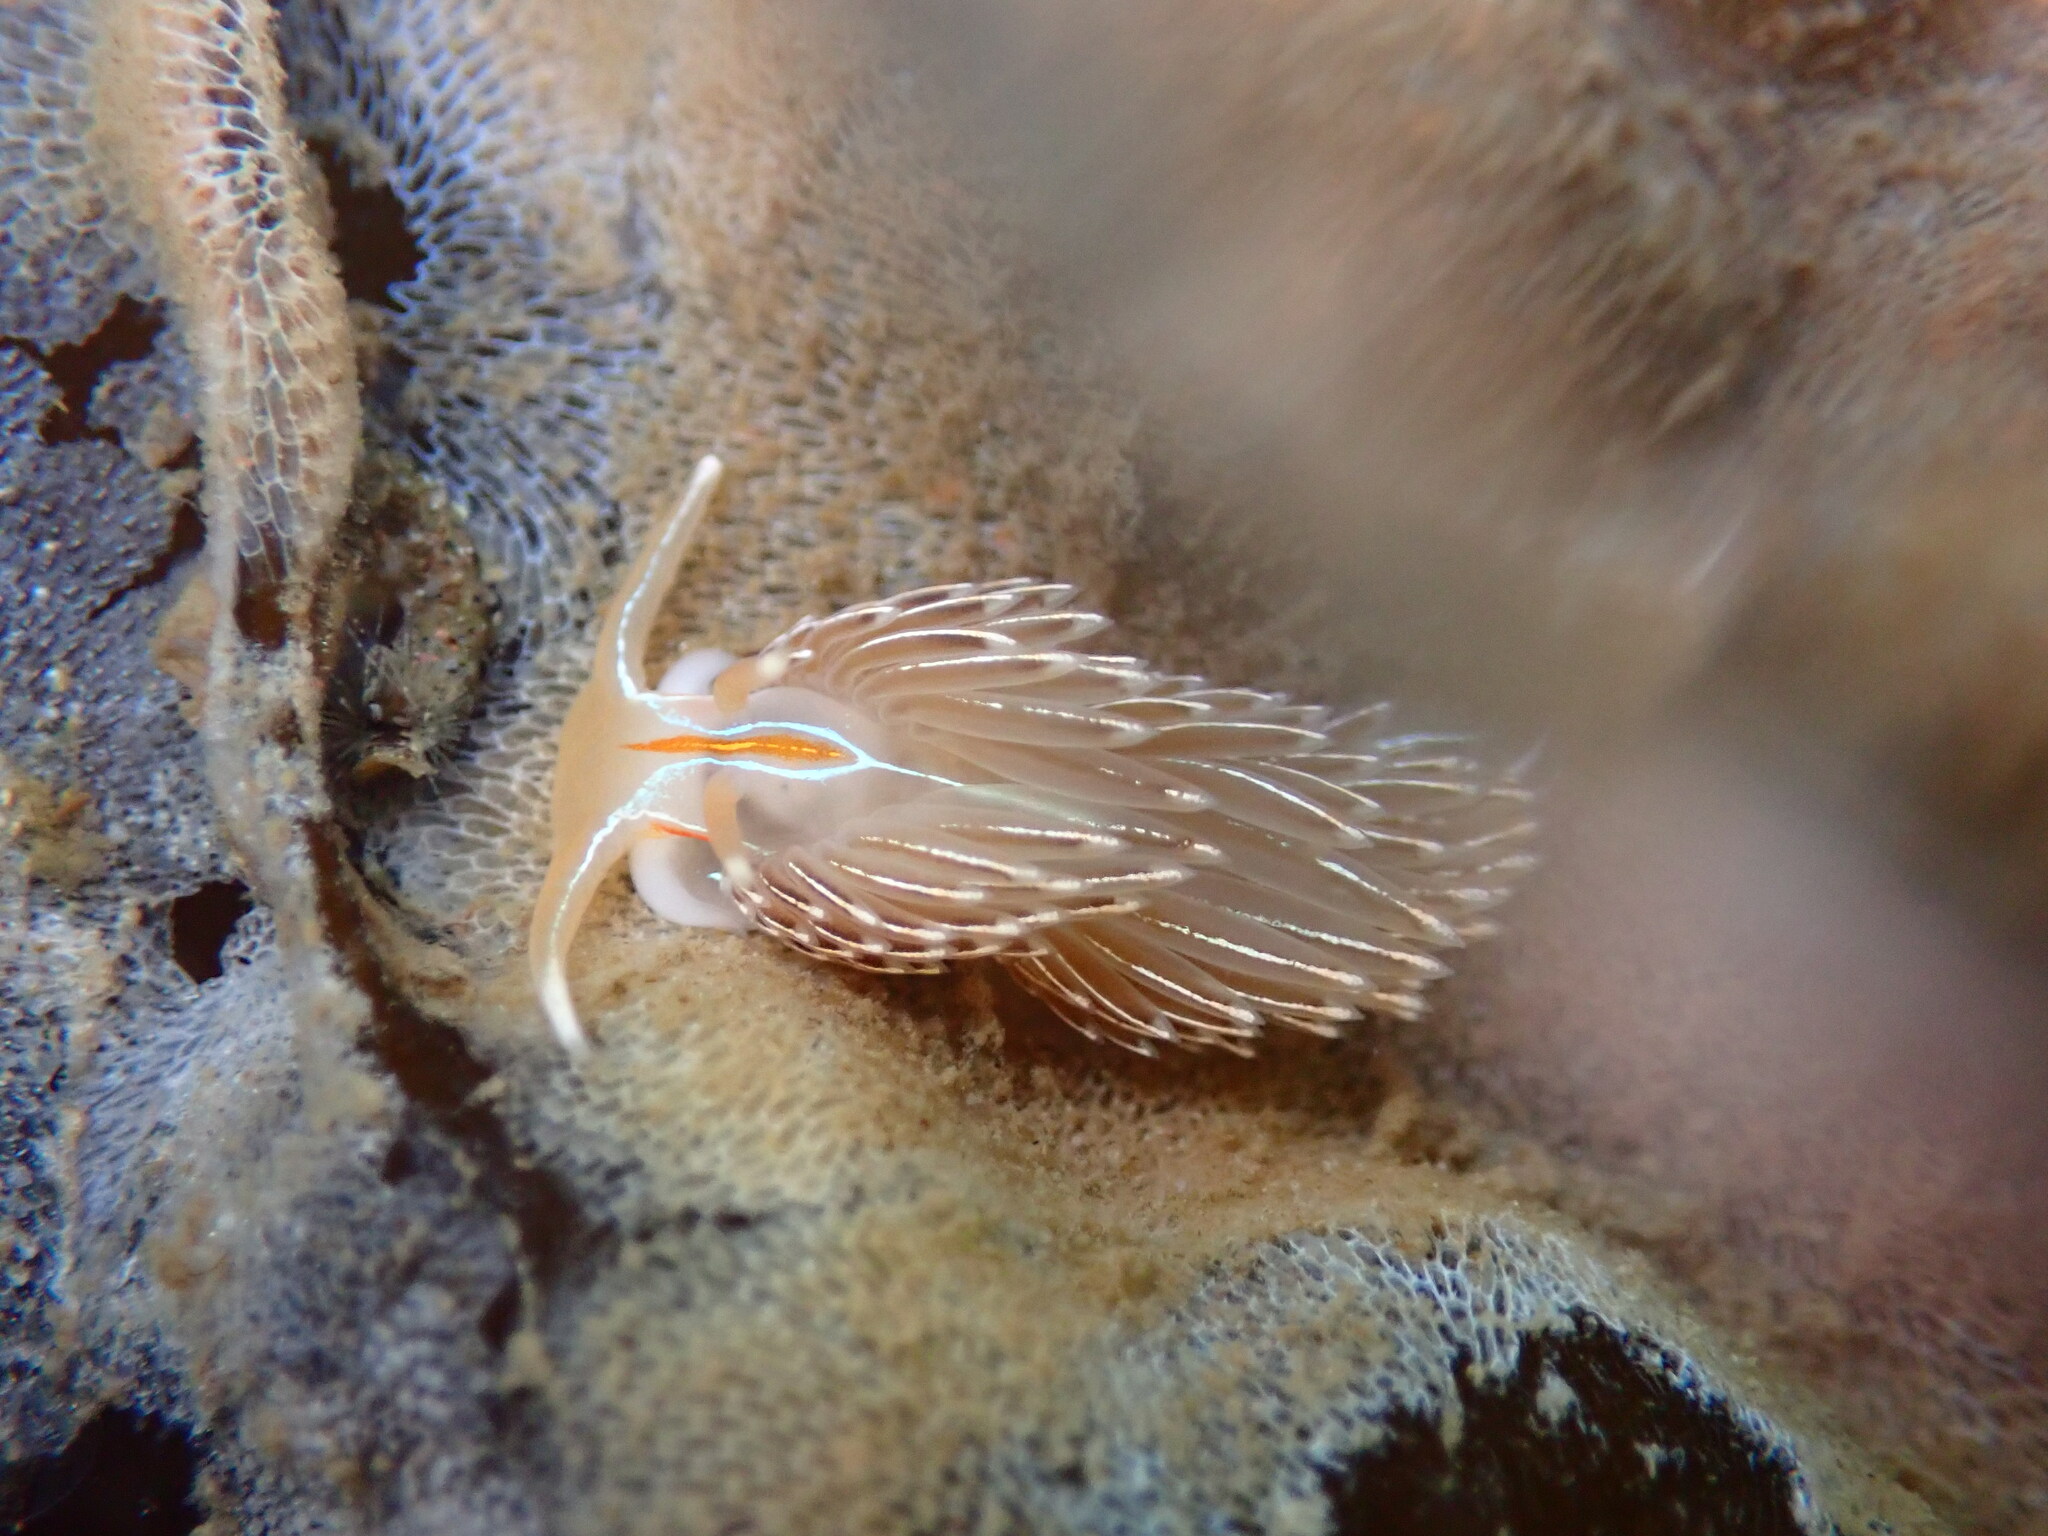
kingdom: Animalia
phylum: Mollusca
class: Gastropoda
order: Nudibranchia
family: Myrrhinidae
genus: Hermissenda
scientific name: Hermissenda crassicornis
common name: Hermissenda
